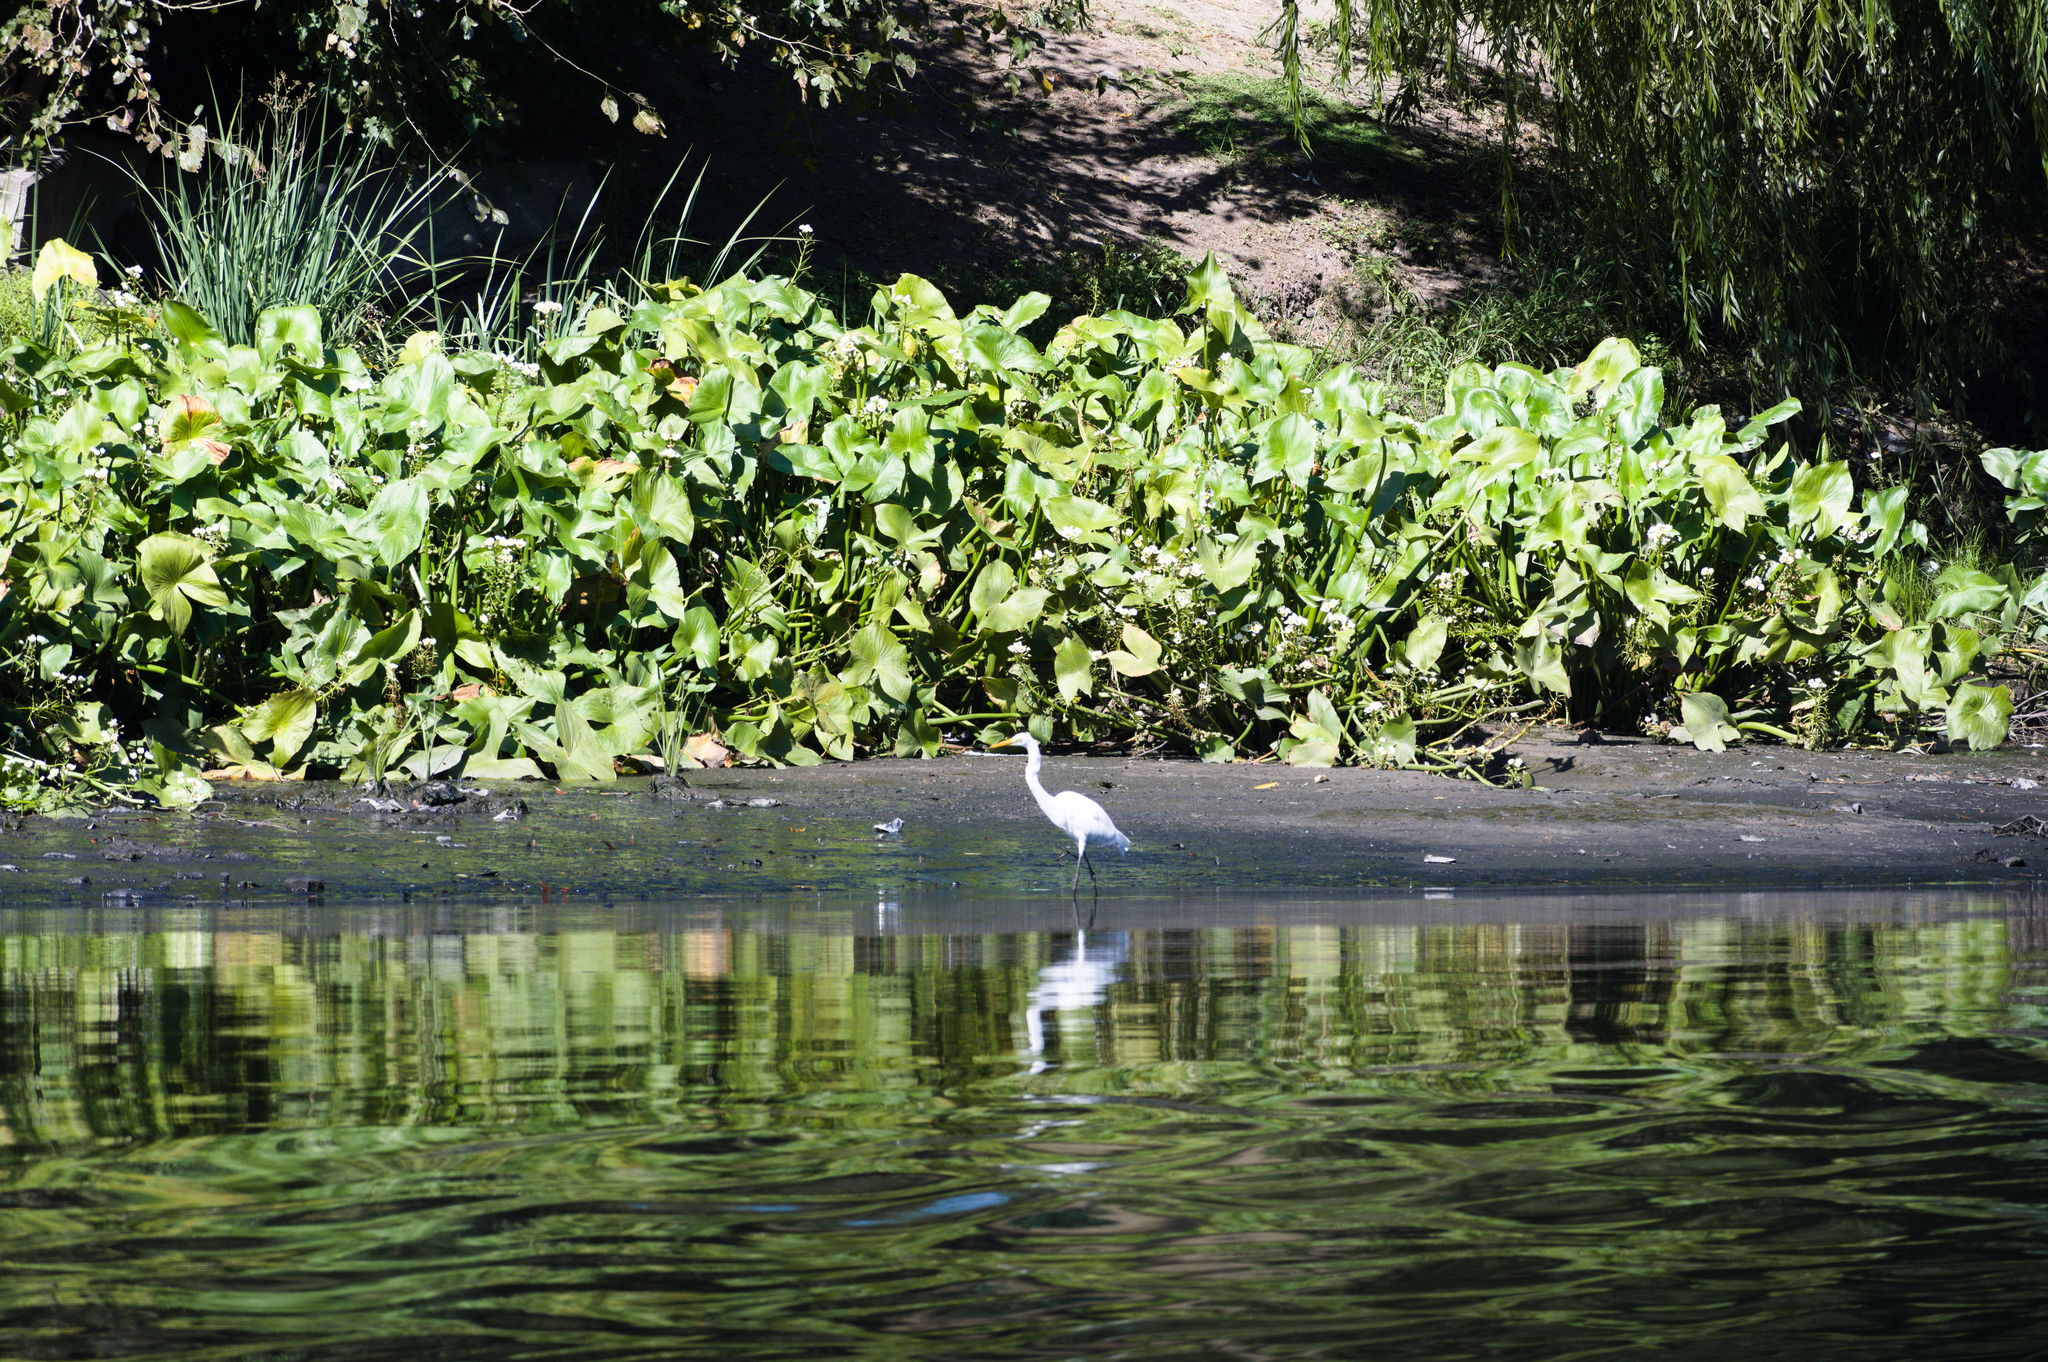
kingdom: Animalia
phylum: Chordata
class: Aves
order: Pelecaniformes
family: Ardeidae
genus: Ardea
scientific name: Ardea alba
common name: Great egret
